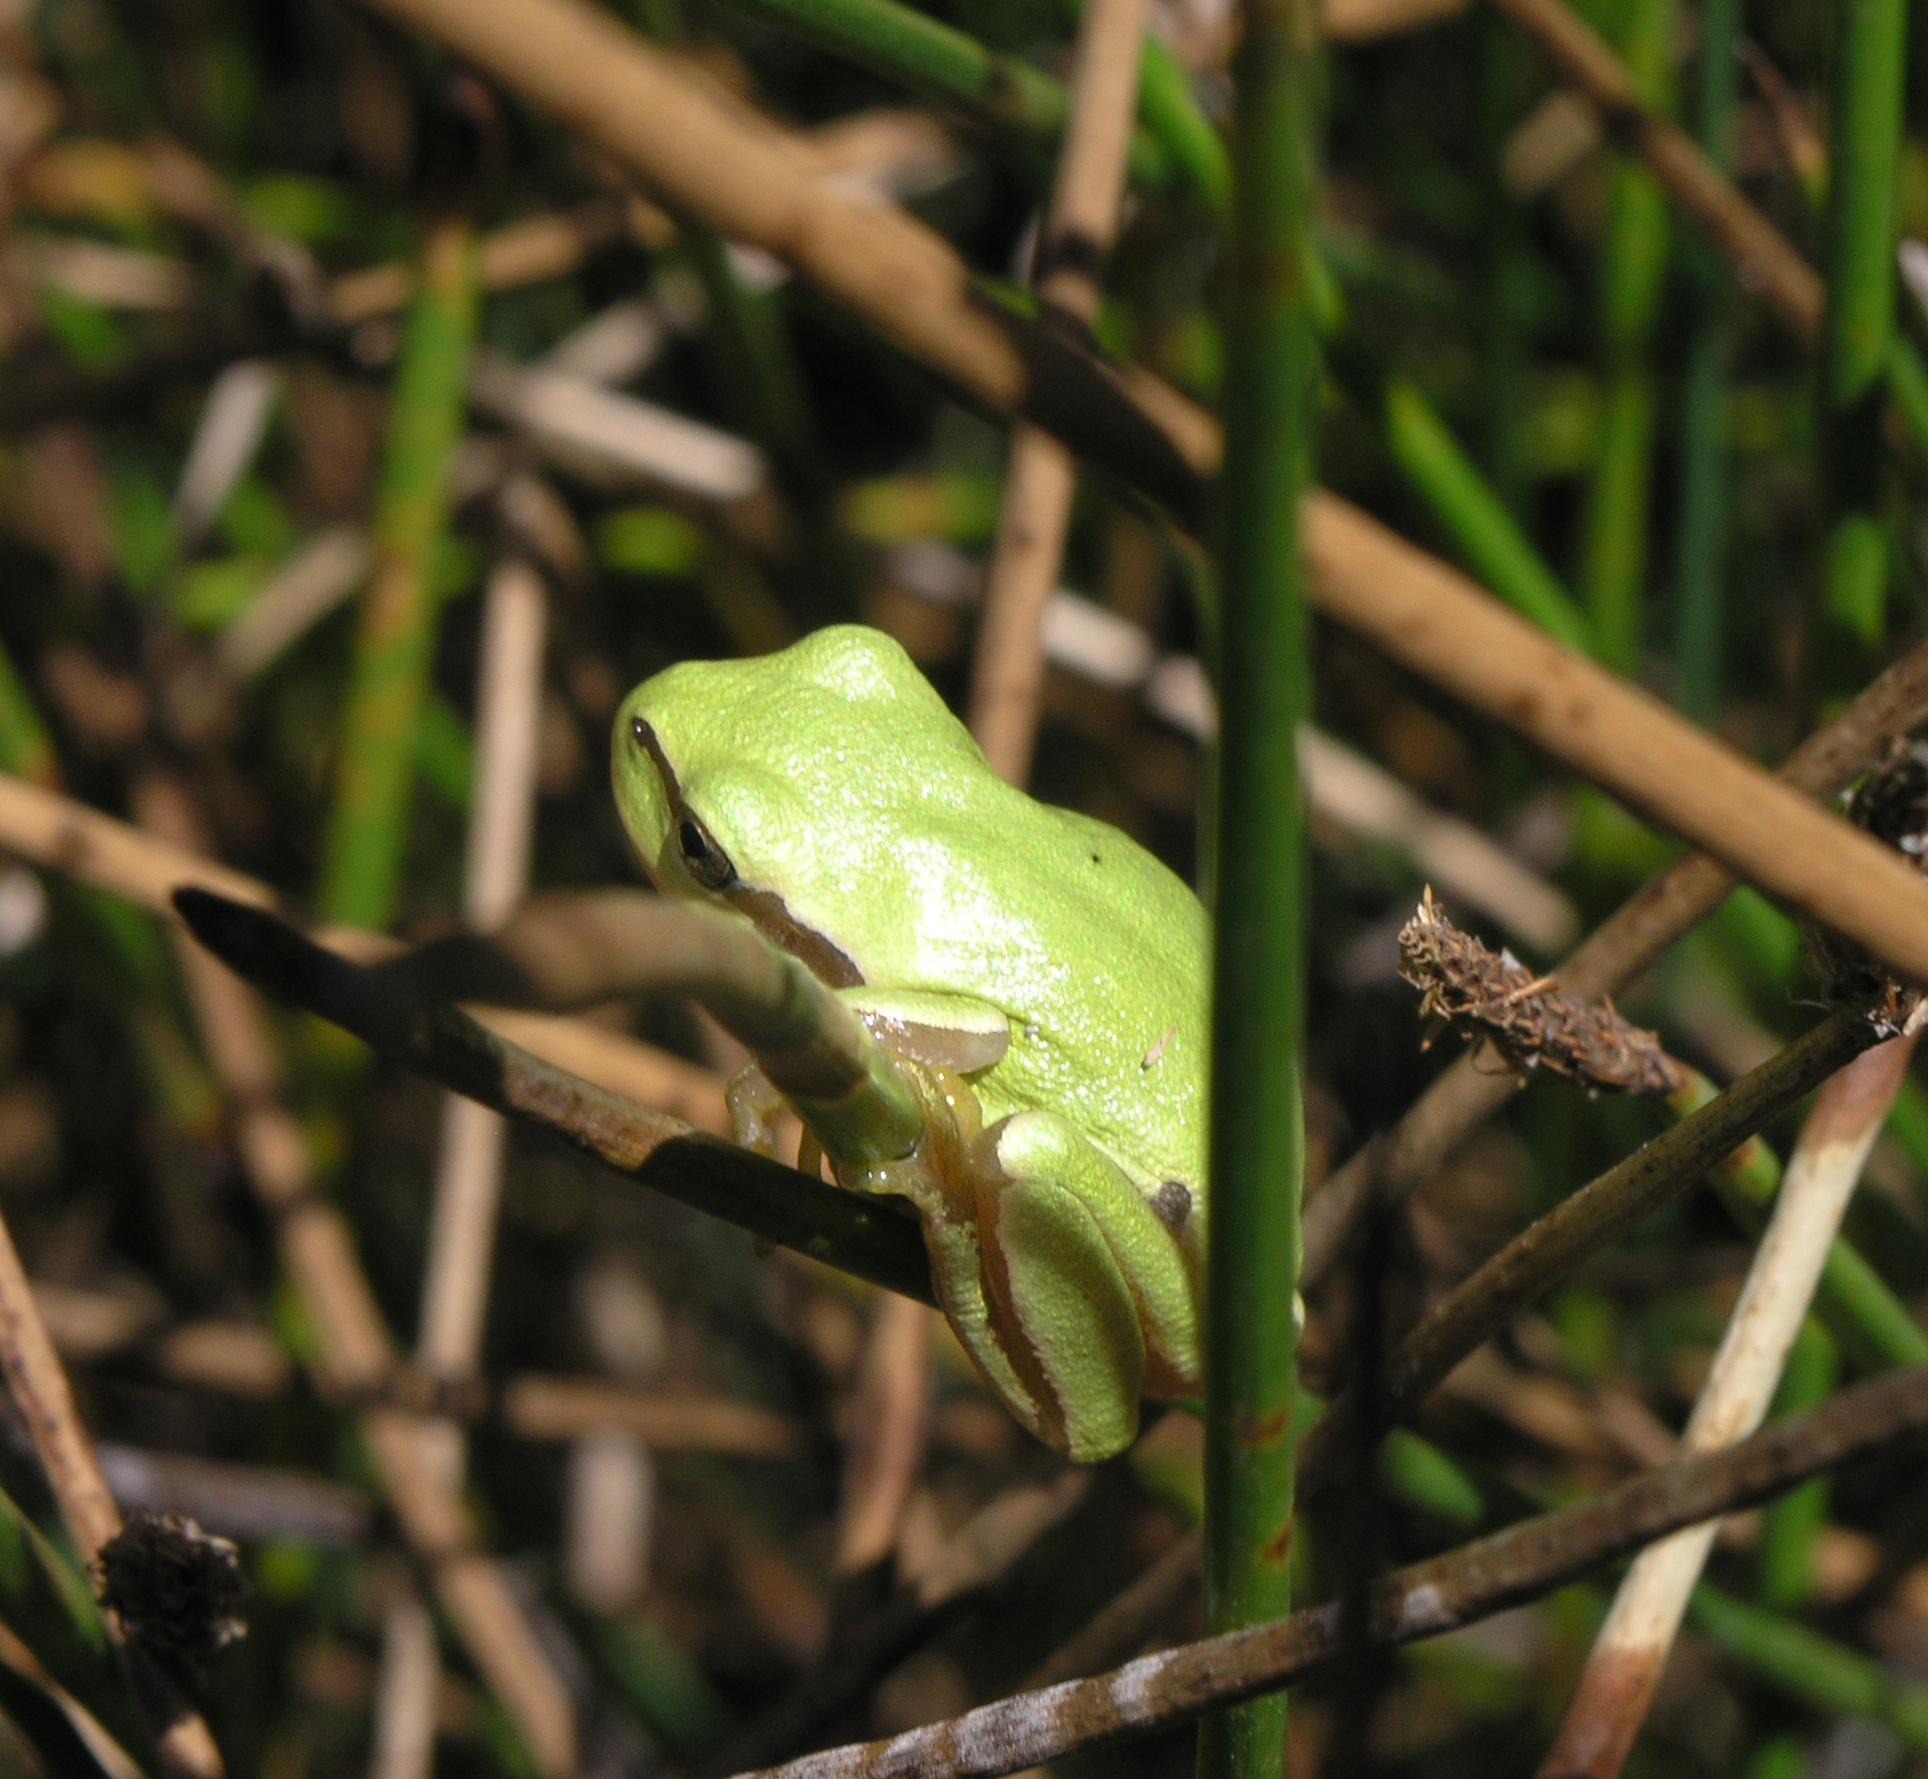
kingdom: Animalia
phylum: Chordata
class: Amphibia
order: Anura
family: Hylidae
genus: Hyla
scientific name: Hyla molleri
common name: Iberian tree frog
